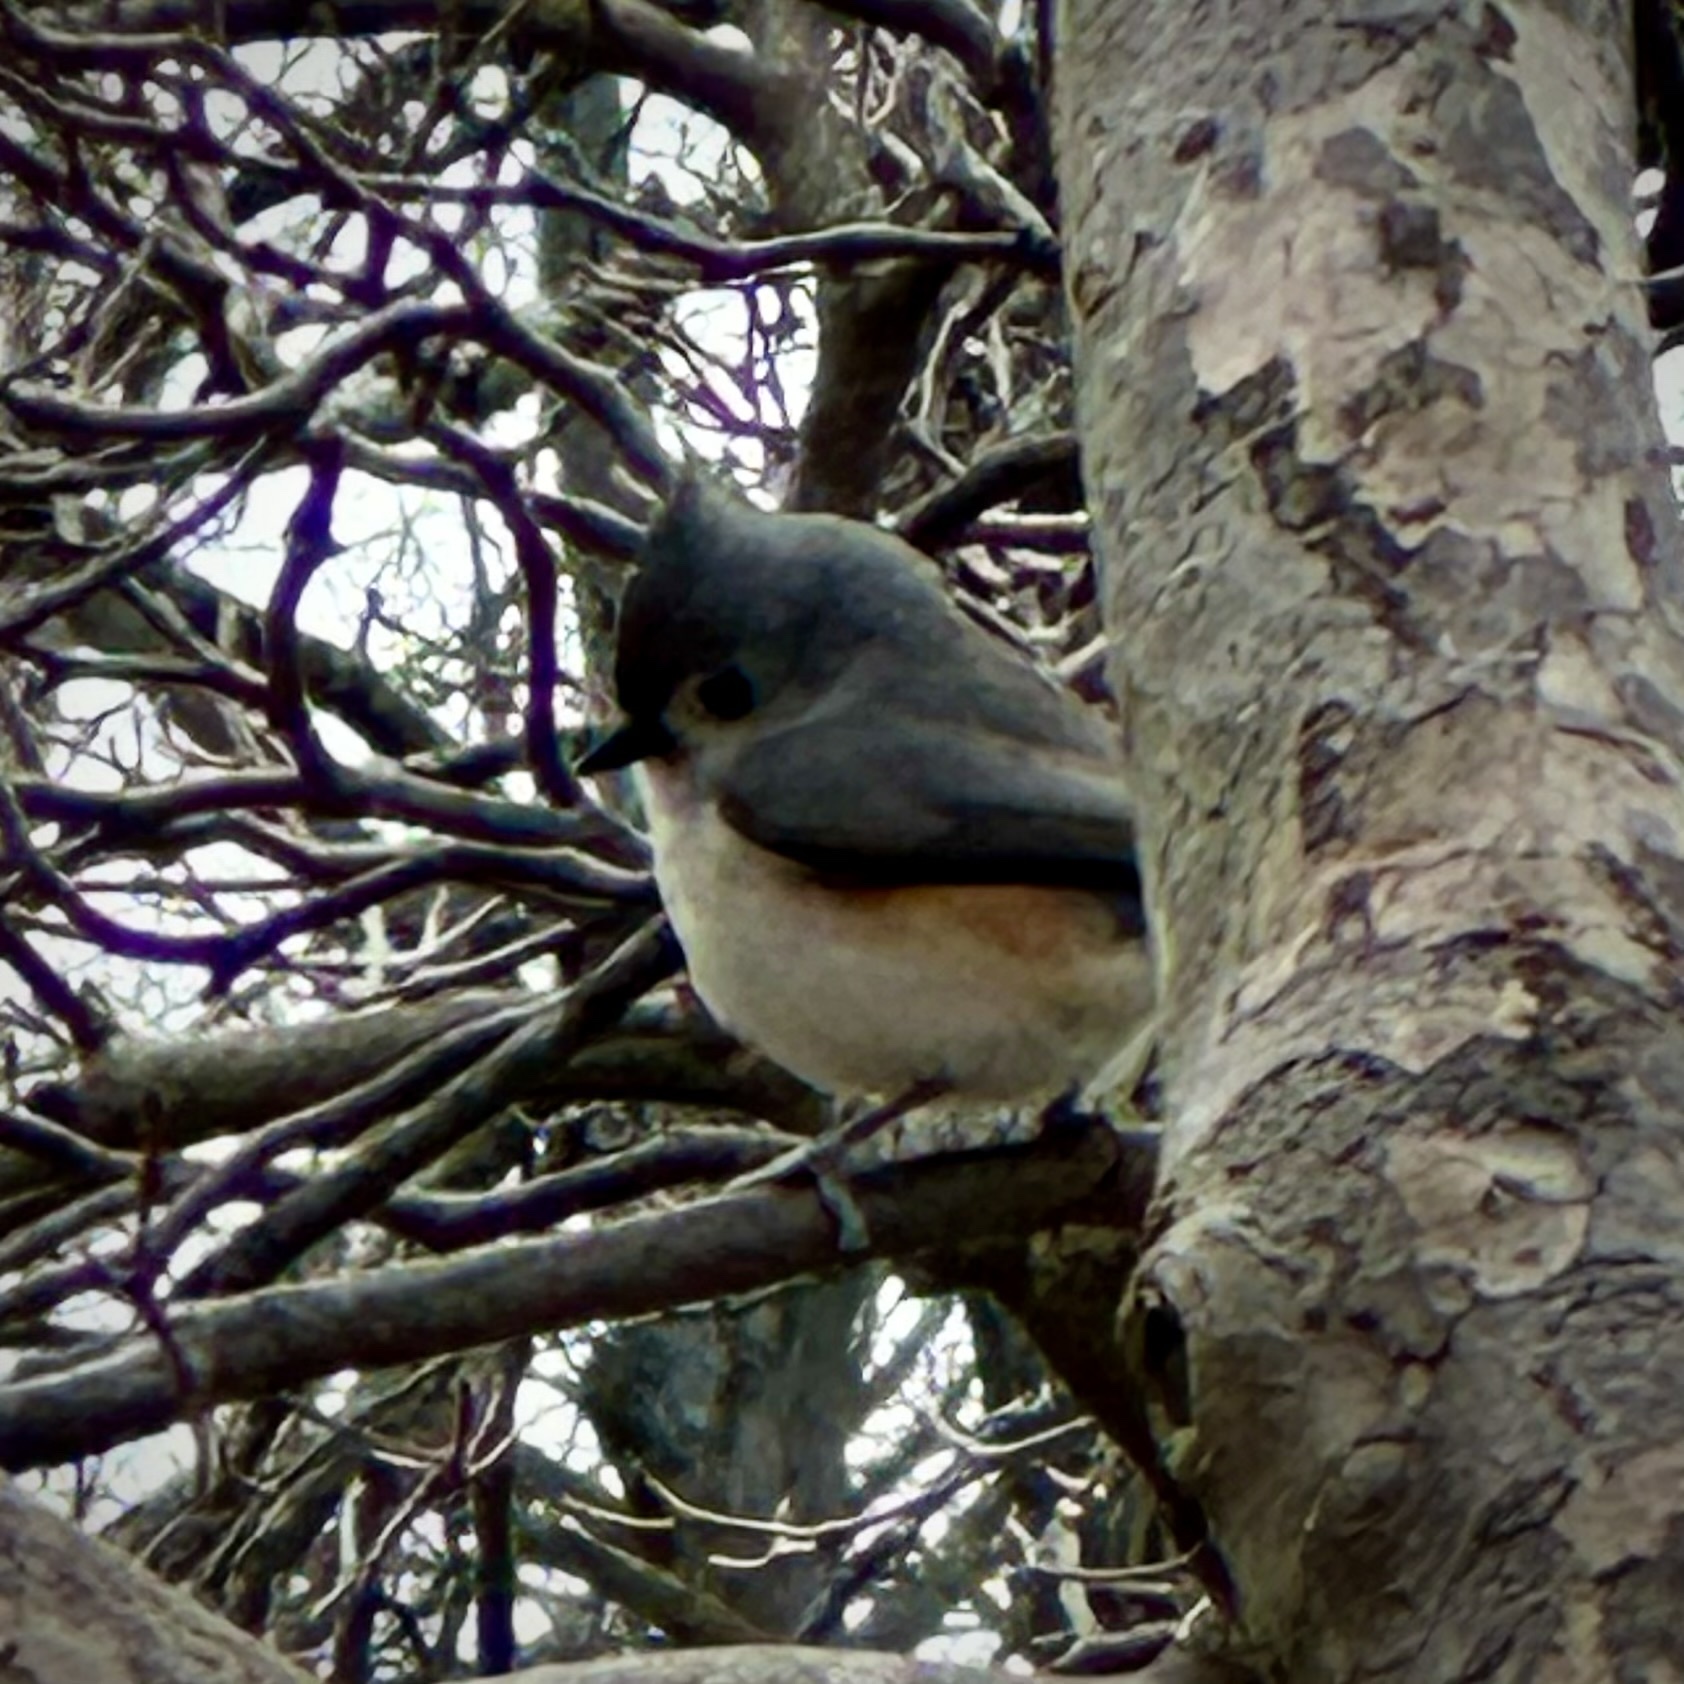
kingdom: Animalia
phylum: Chordata
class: Aves
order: Passeriformes
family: Paridae
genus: Baeolophus
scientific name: Baeolophus bicolor
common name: Tufted titmouse
